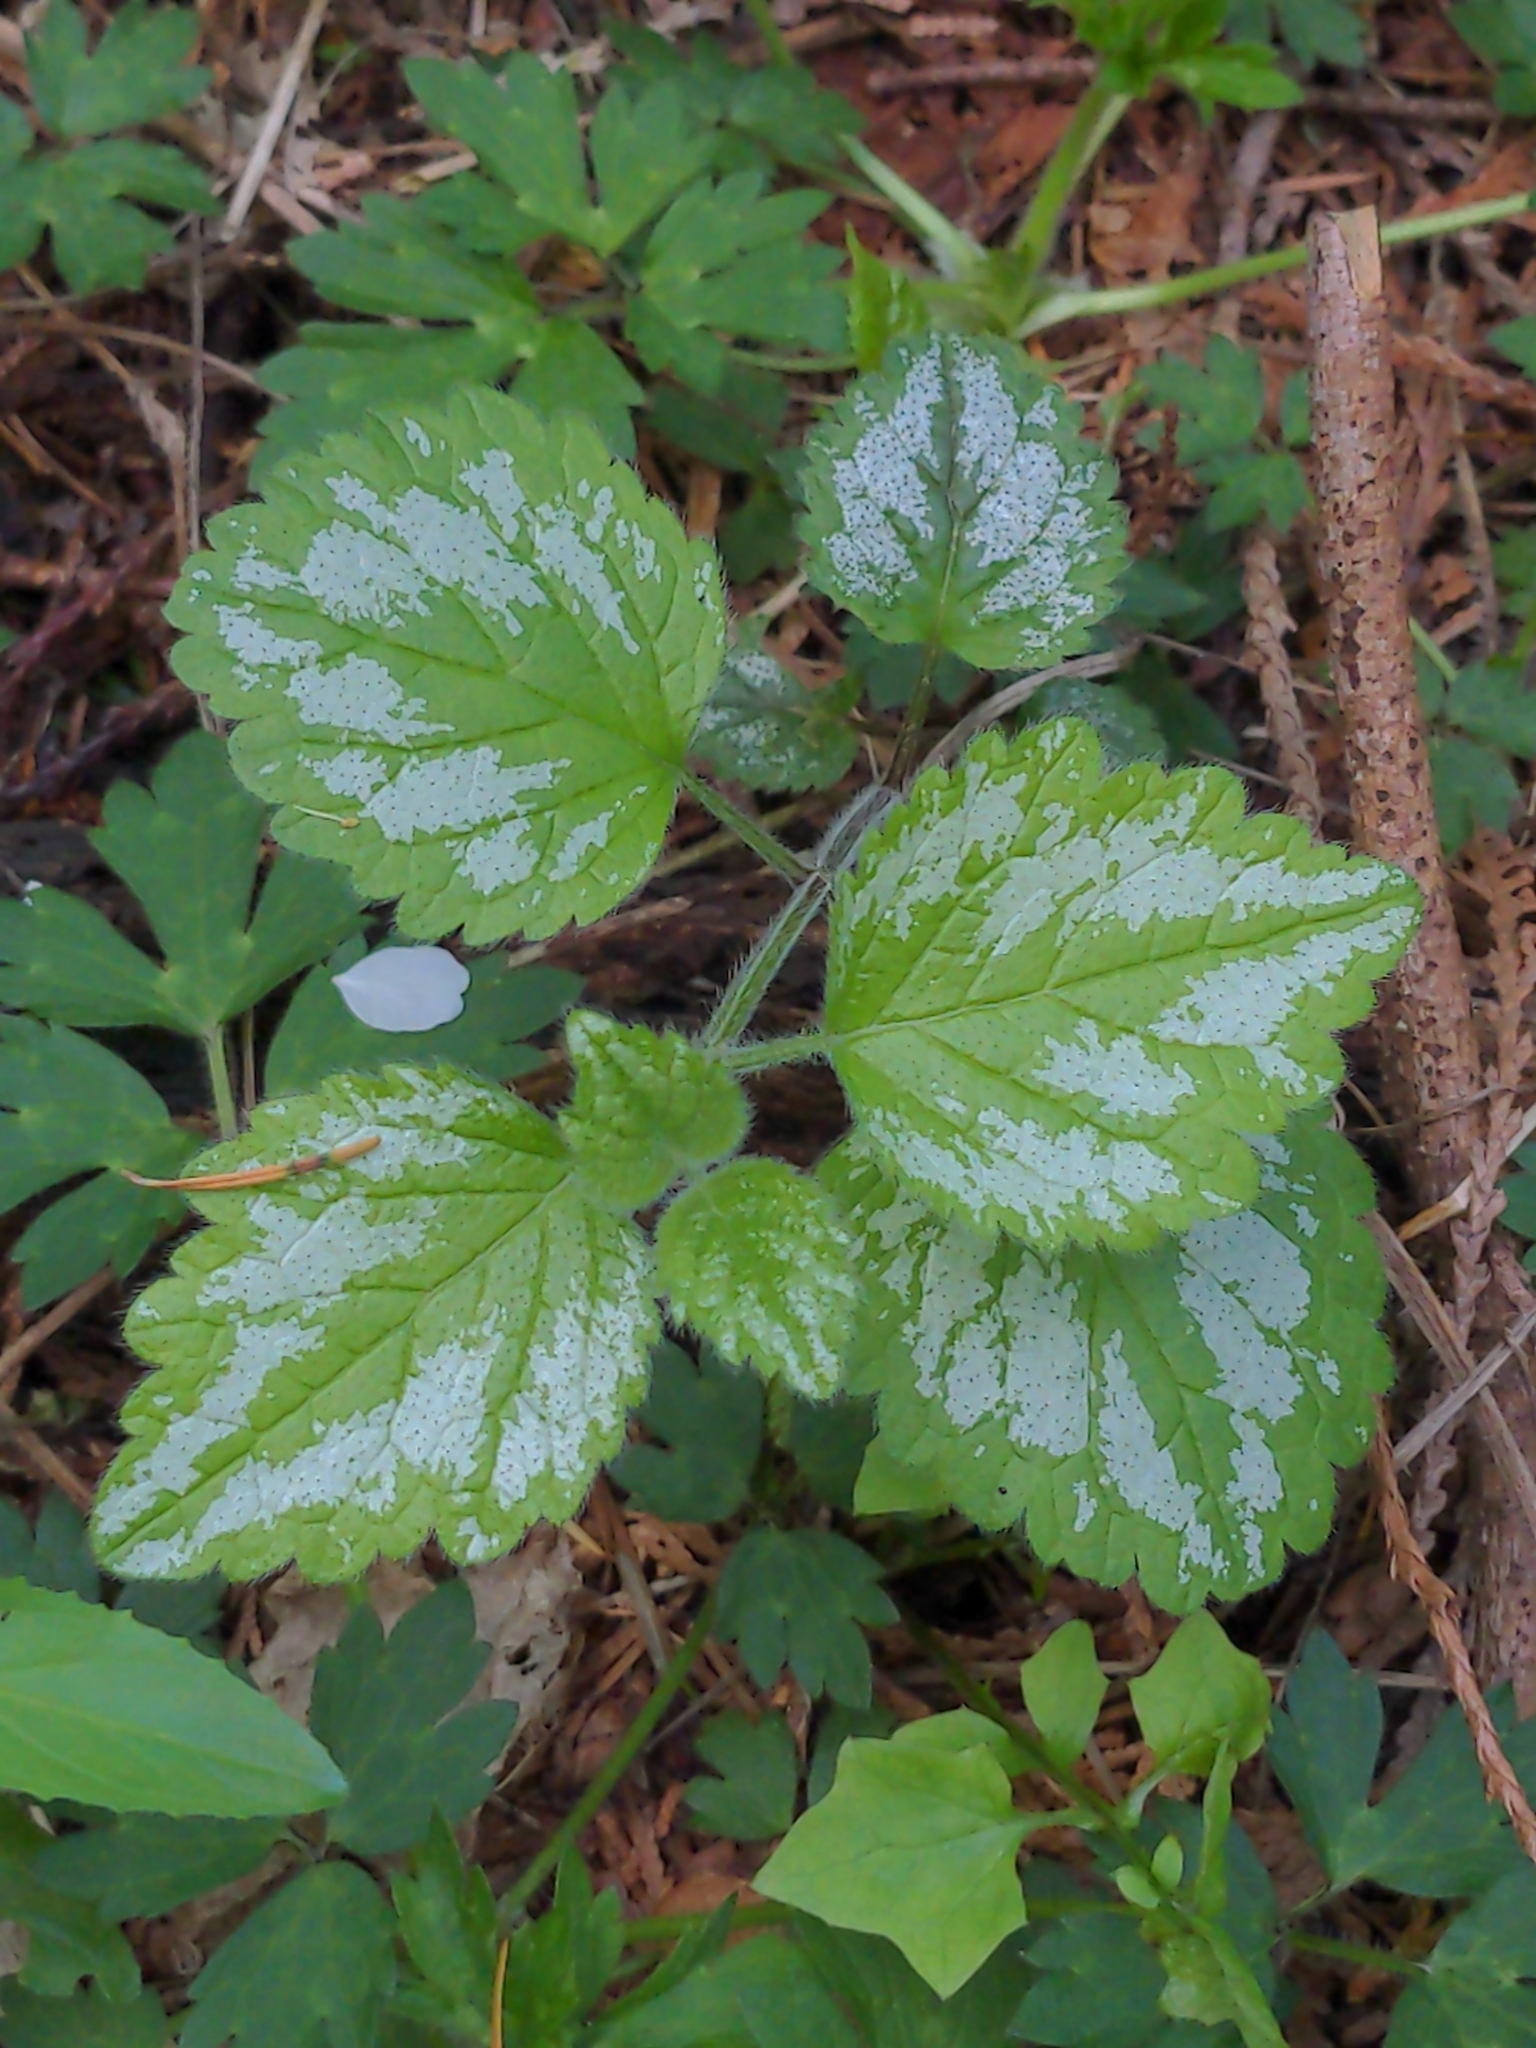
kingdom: Plantae
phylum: Tracheophyta
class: Magnoliopsida
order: Lamiales
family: Lamiaceae
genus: Lamium
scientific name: Lamium galeobdolon
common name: Yellow archangel
